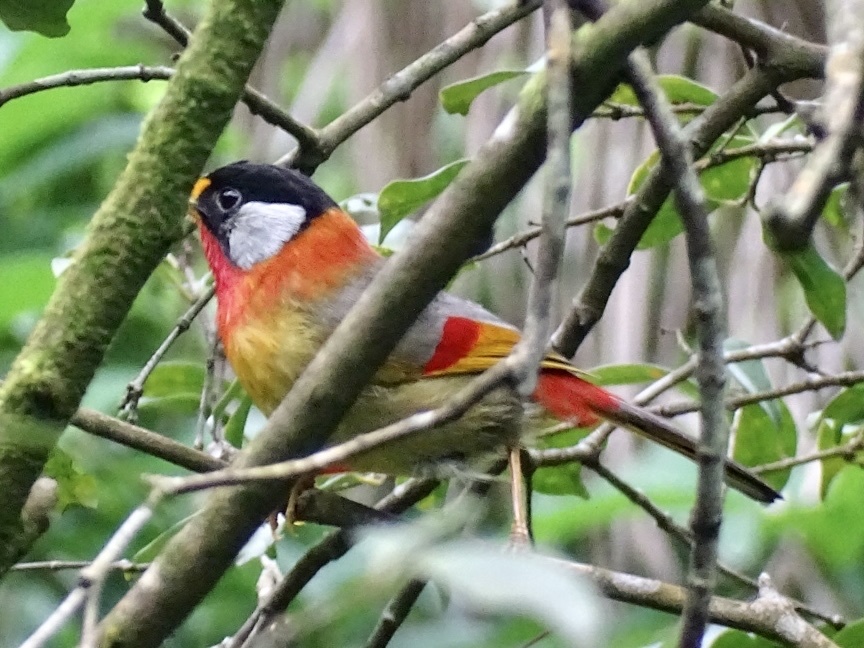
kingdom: Animalia
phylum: Chordata
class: Aves
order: Passeriformes
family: Leiothrichidae
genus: Leiothrix
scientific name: Leiothrix argentauris
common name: Silver-eared mesia
